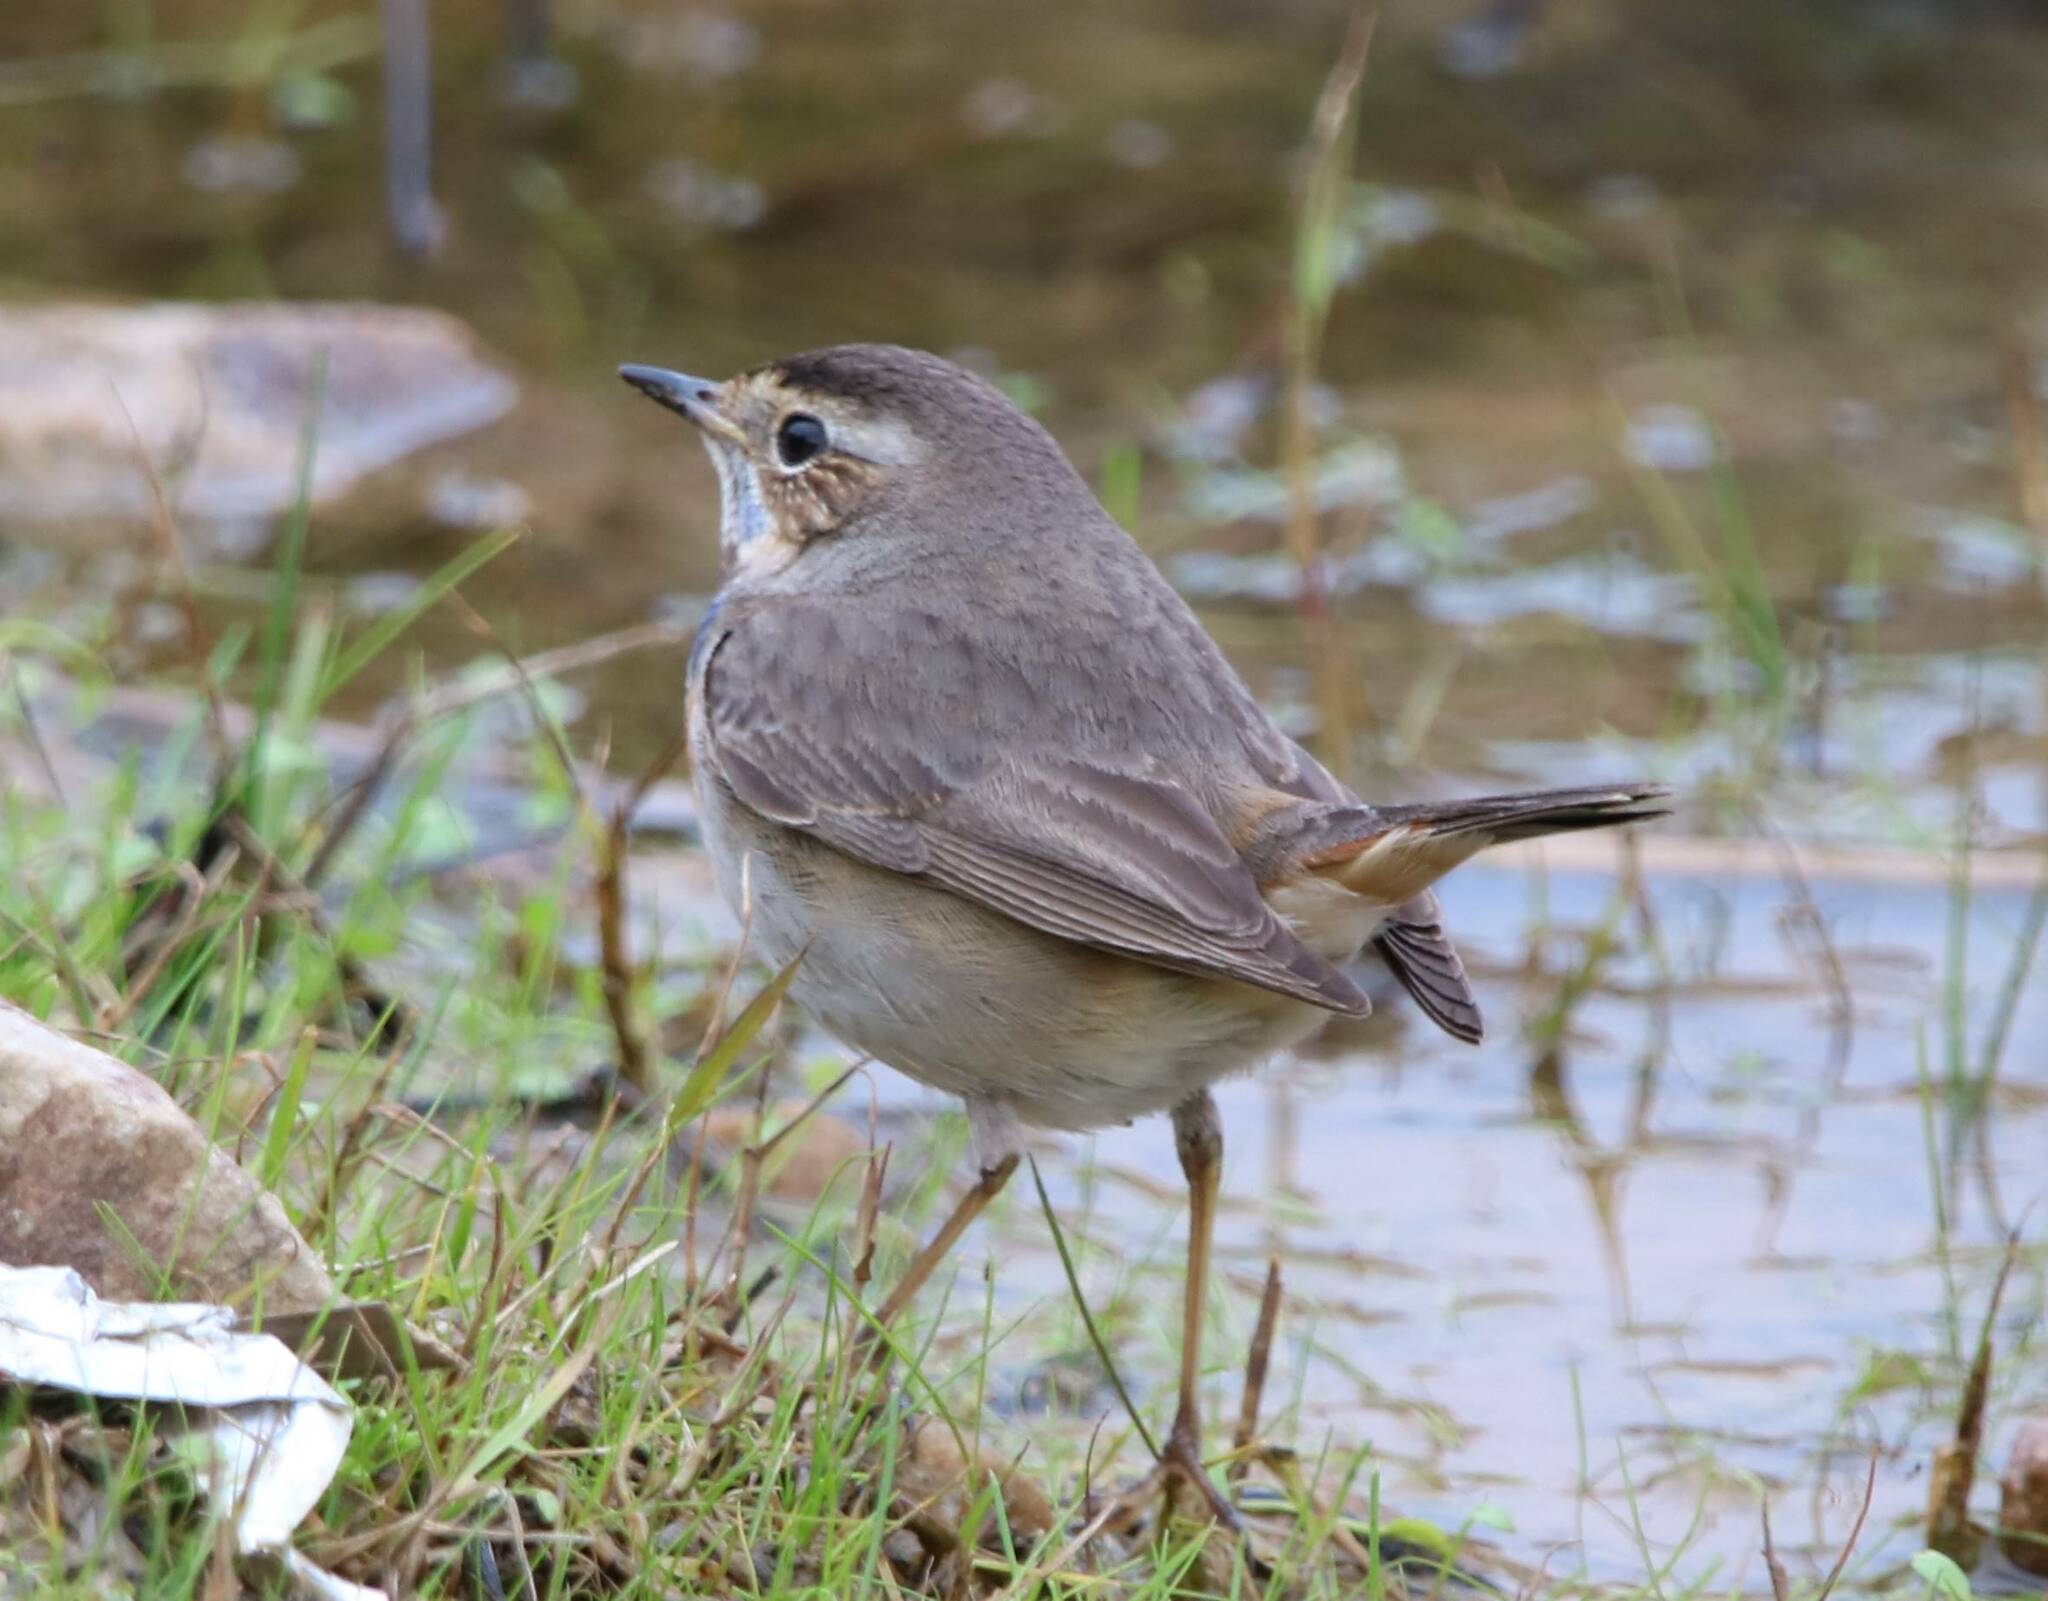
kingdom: Animalia
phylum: Chordata
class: Aves
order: Passeriformes
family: Muscicapidae
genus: Luscinia
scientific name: Luscinia svecica
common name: Bluethroat
